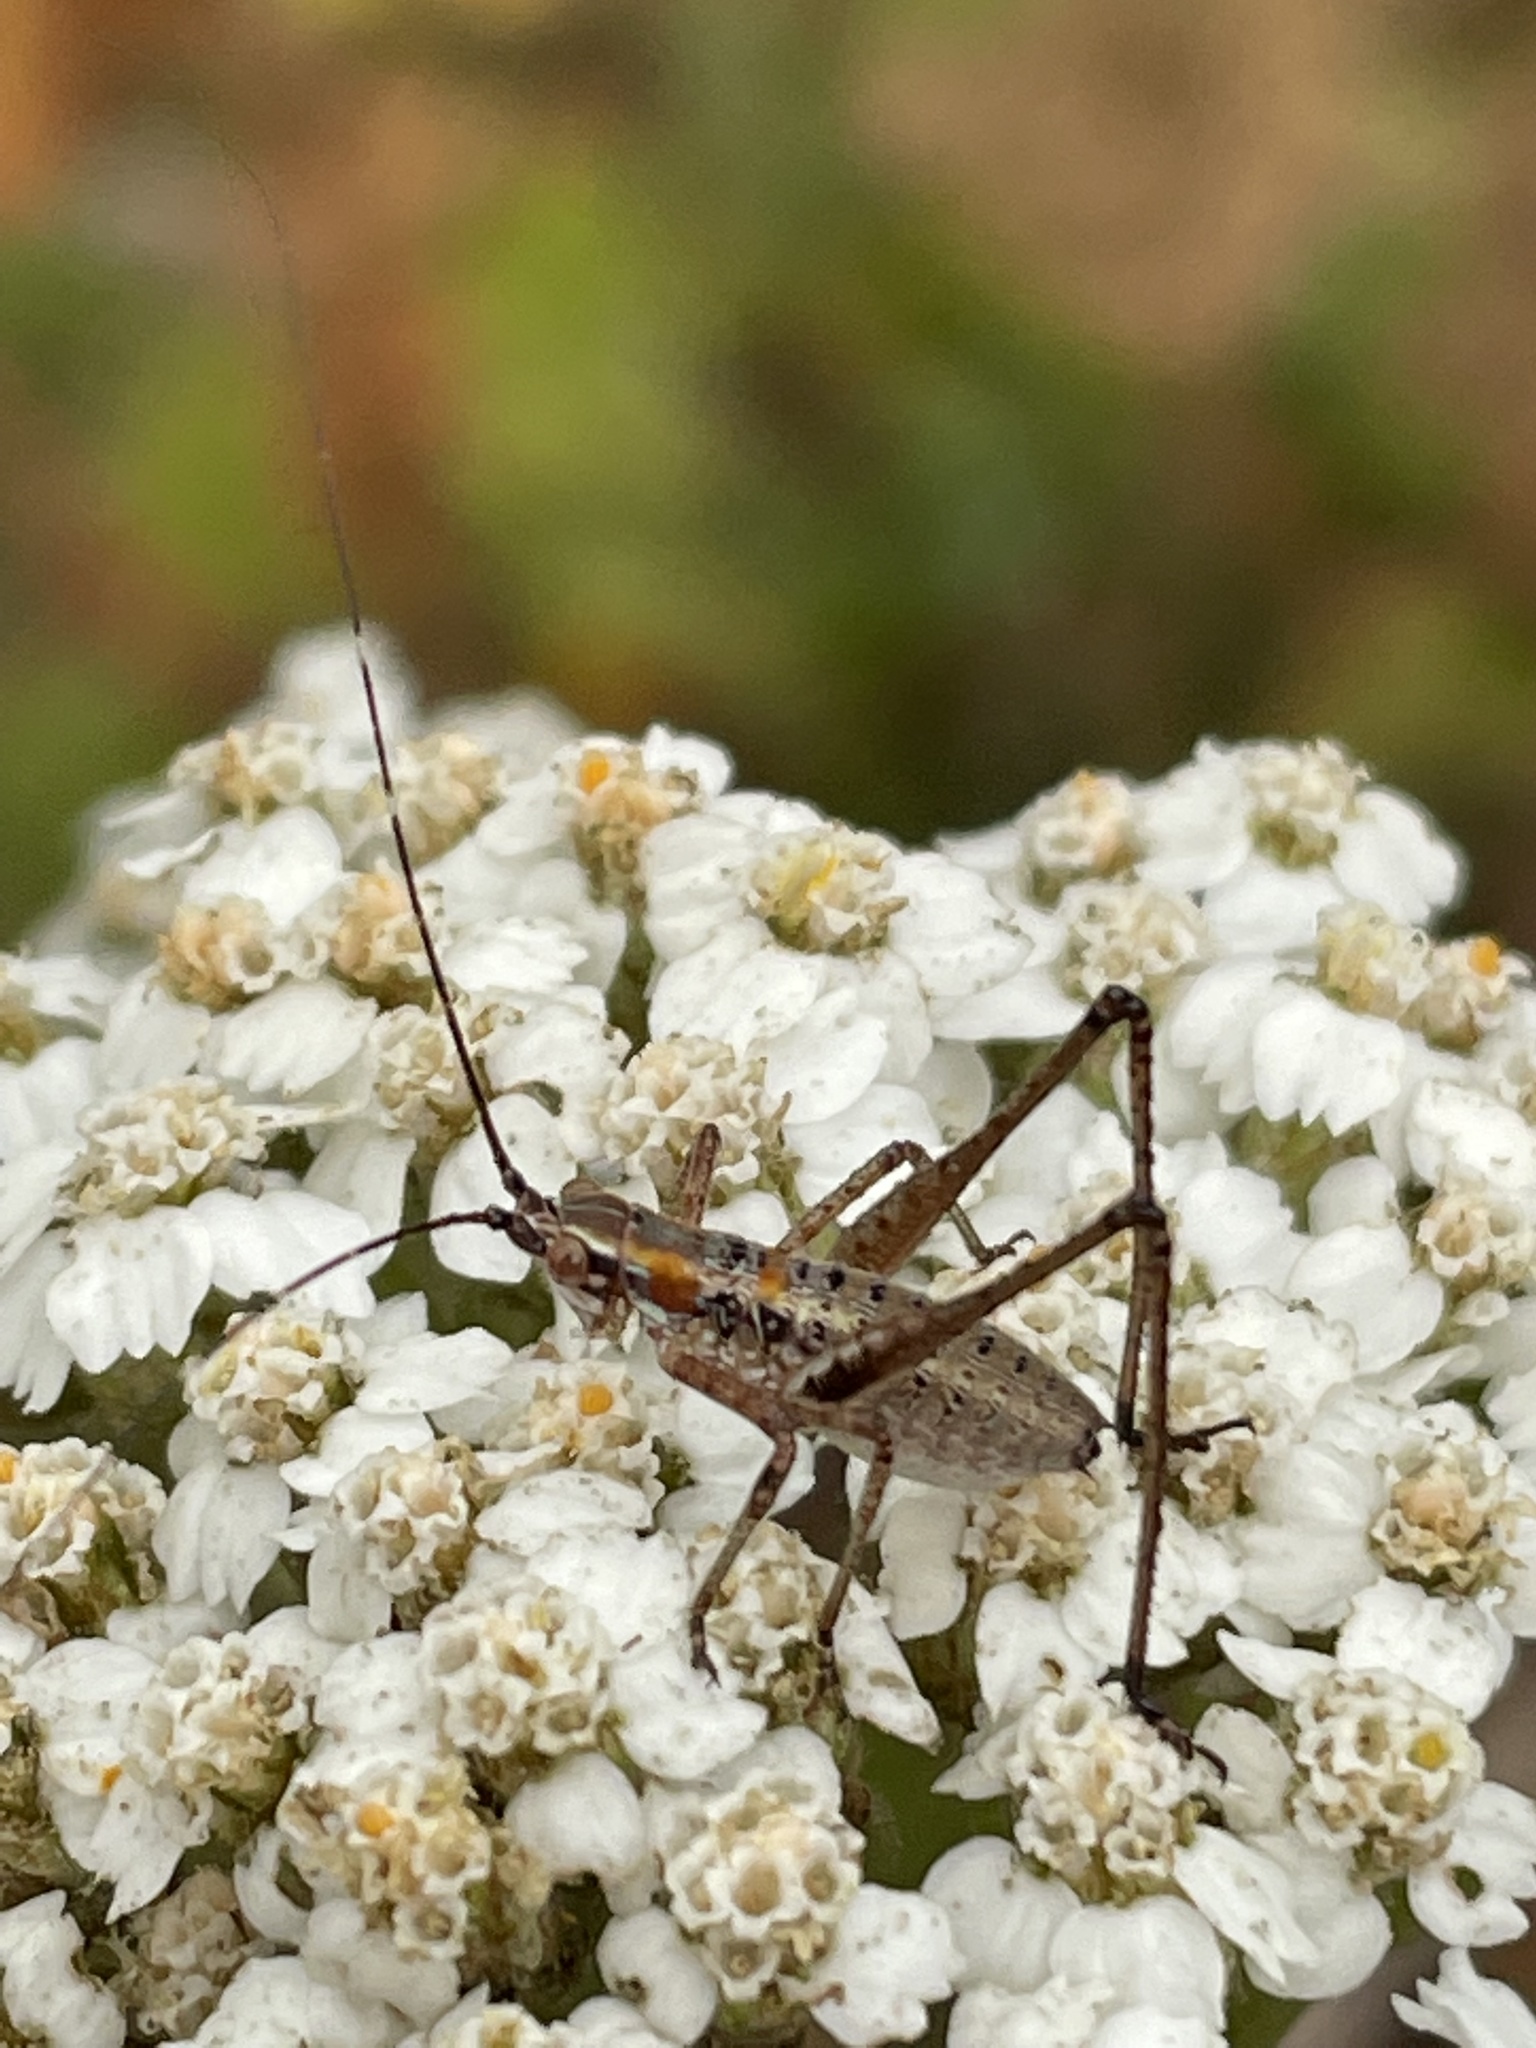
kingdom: Animalia
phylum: Arthropoda
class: Insecta
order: Orthoptera
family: Tettigoniidae
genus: Scudderia
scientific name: Scudderia
